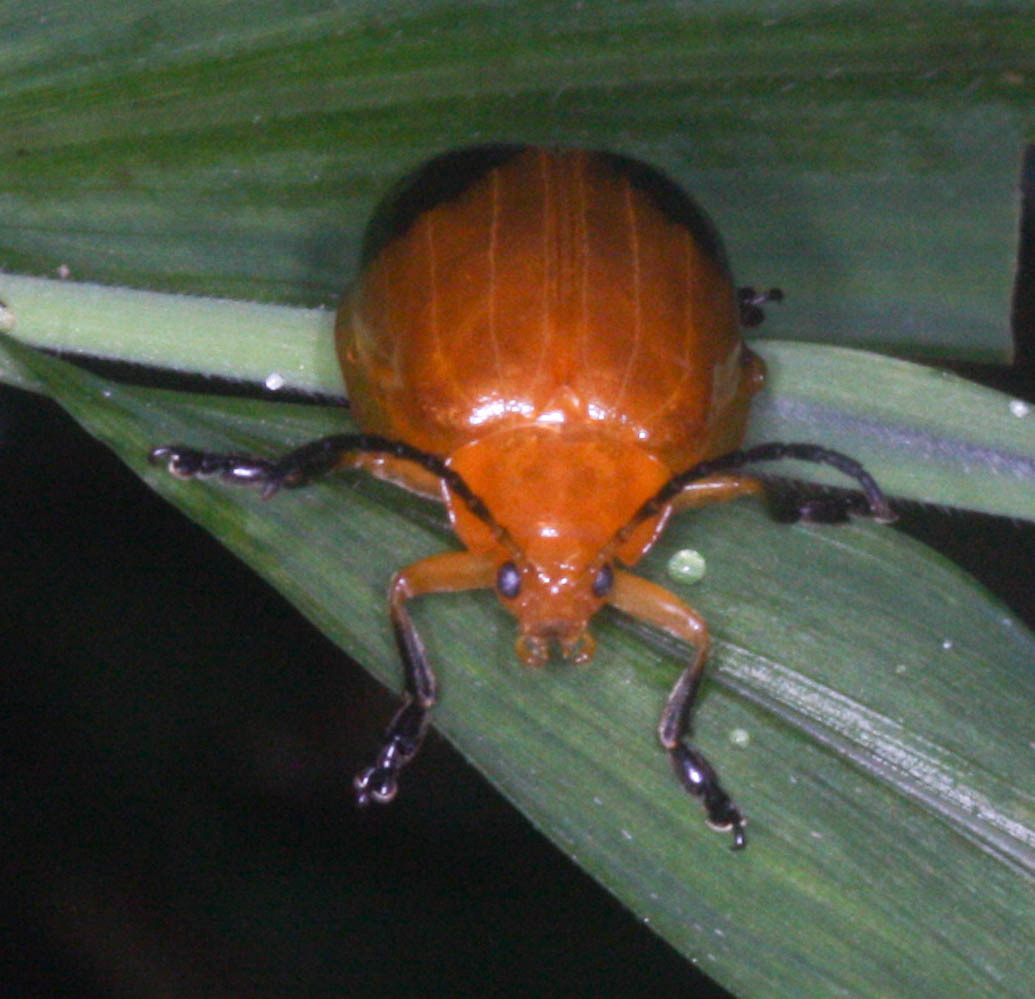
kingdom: Animalia
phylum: Arthropoda
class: Insecta
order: Coleoptera
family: Chrysomelidae
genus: Oides
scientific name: Oides palleata
